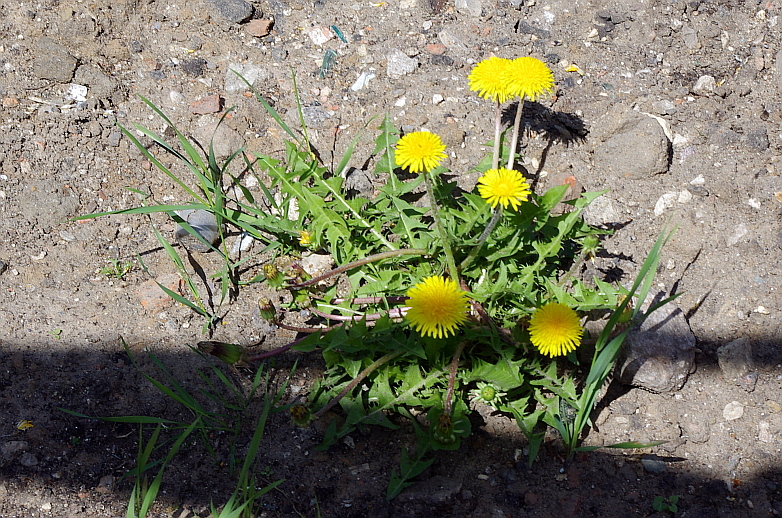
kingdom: Plantae
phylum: Tracheophyta
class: Magnoliopsida
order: Asterales
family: Asteraceae
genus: Taraxacum
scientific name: Taraxacum officinale
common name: Common dandelion
